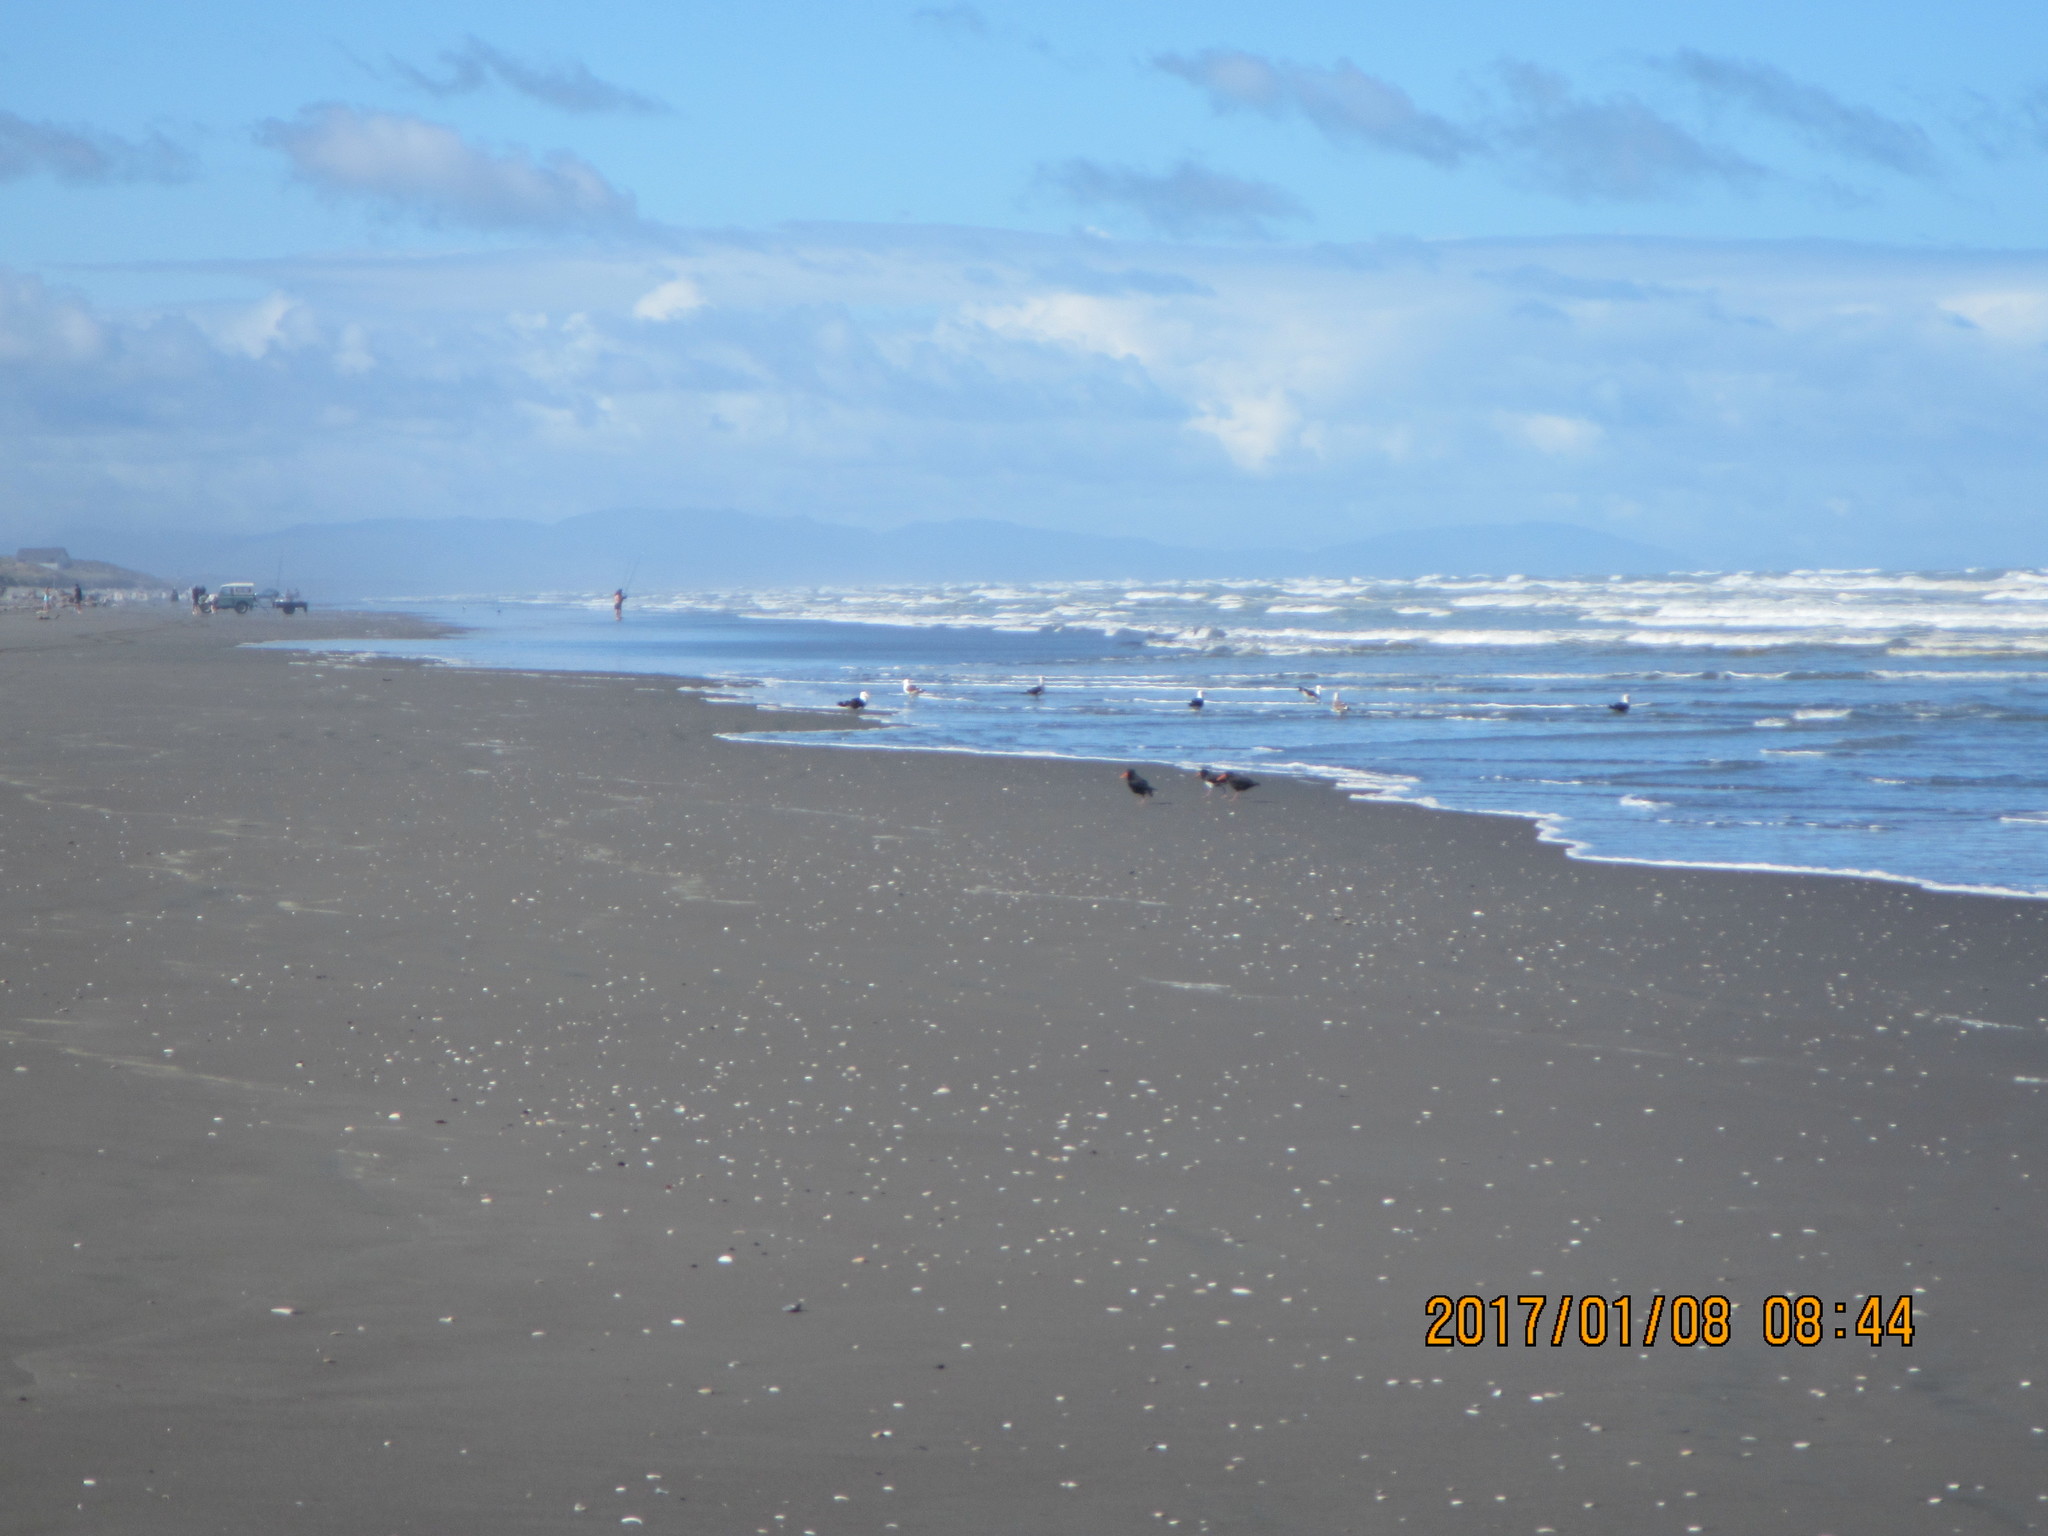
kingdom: Animalia
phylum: Chordata
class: Aves
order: Charadriiformes
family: Haematopodidae
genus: Haematopus
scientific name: Haematopus unicolor
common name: Variable oystercatcher
